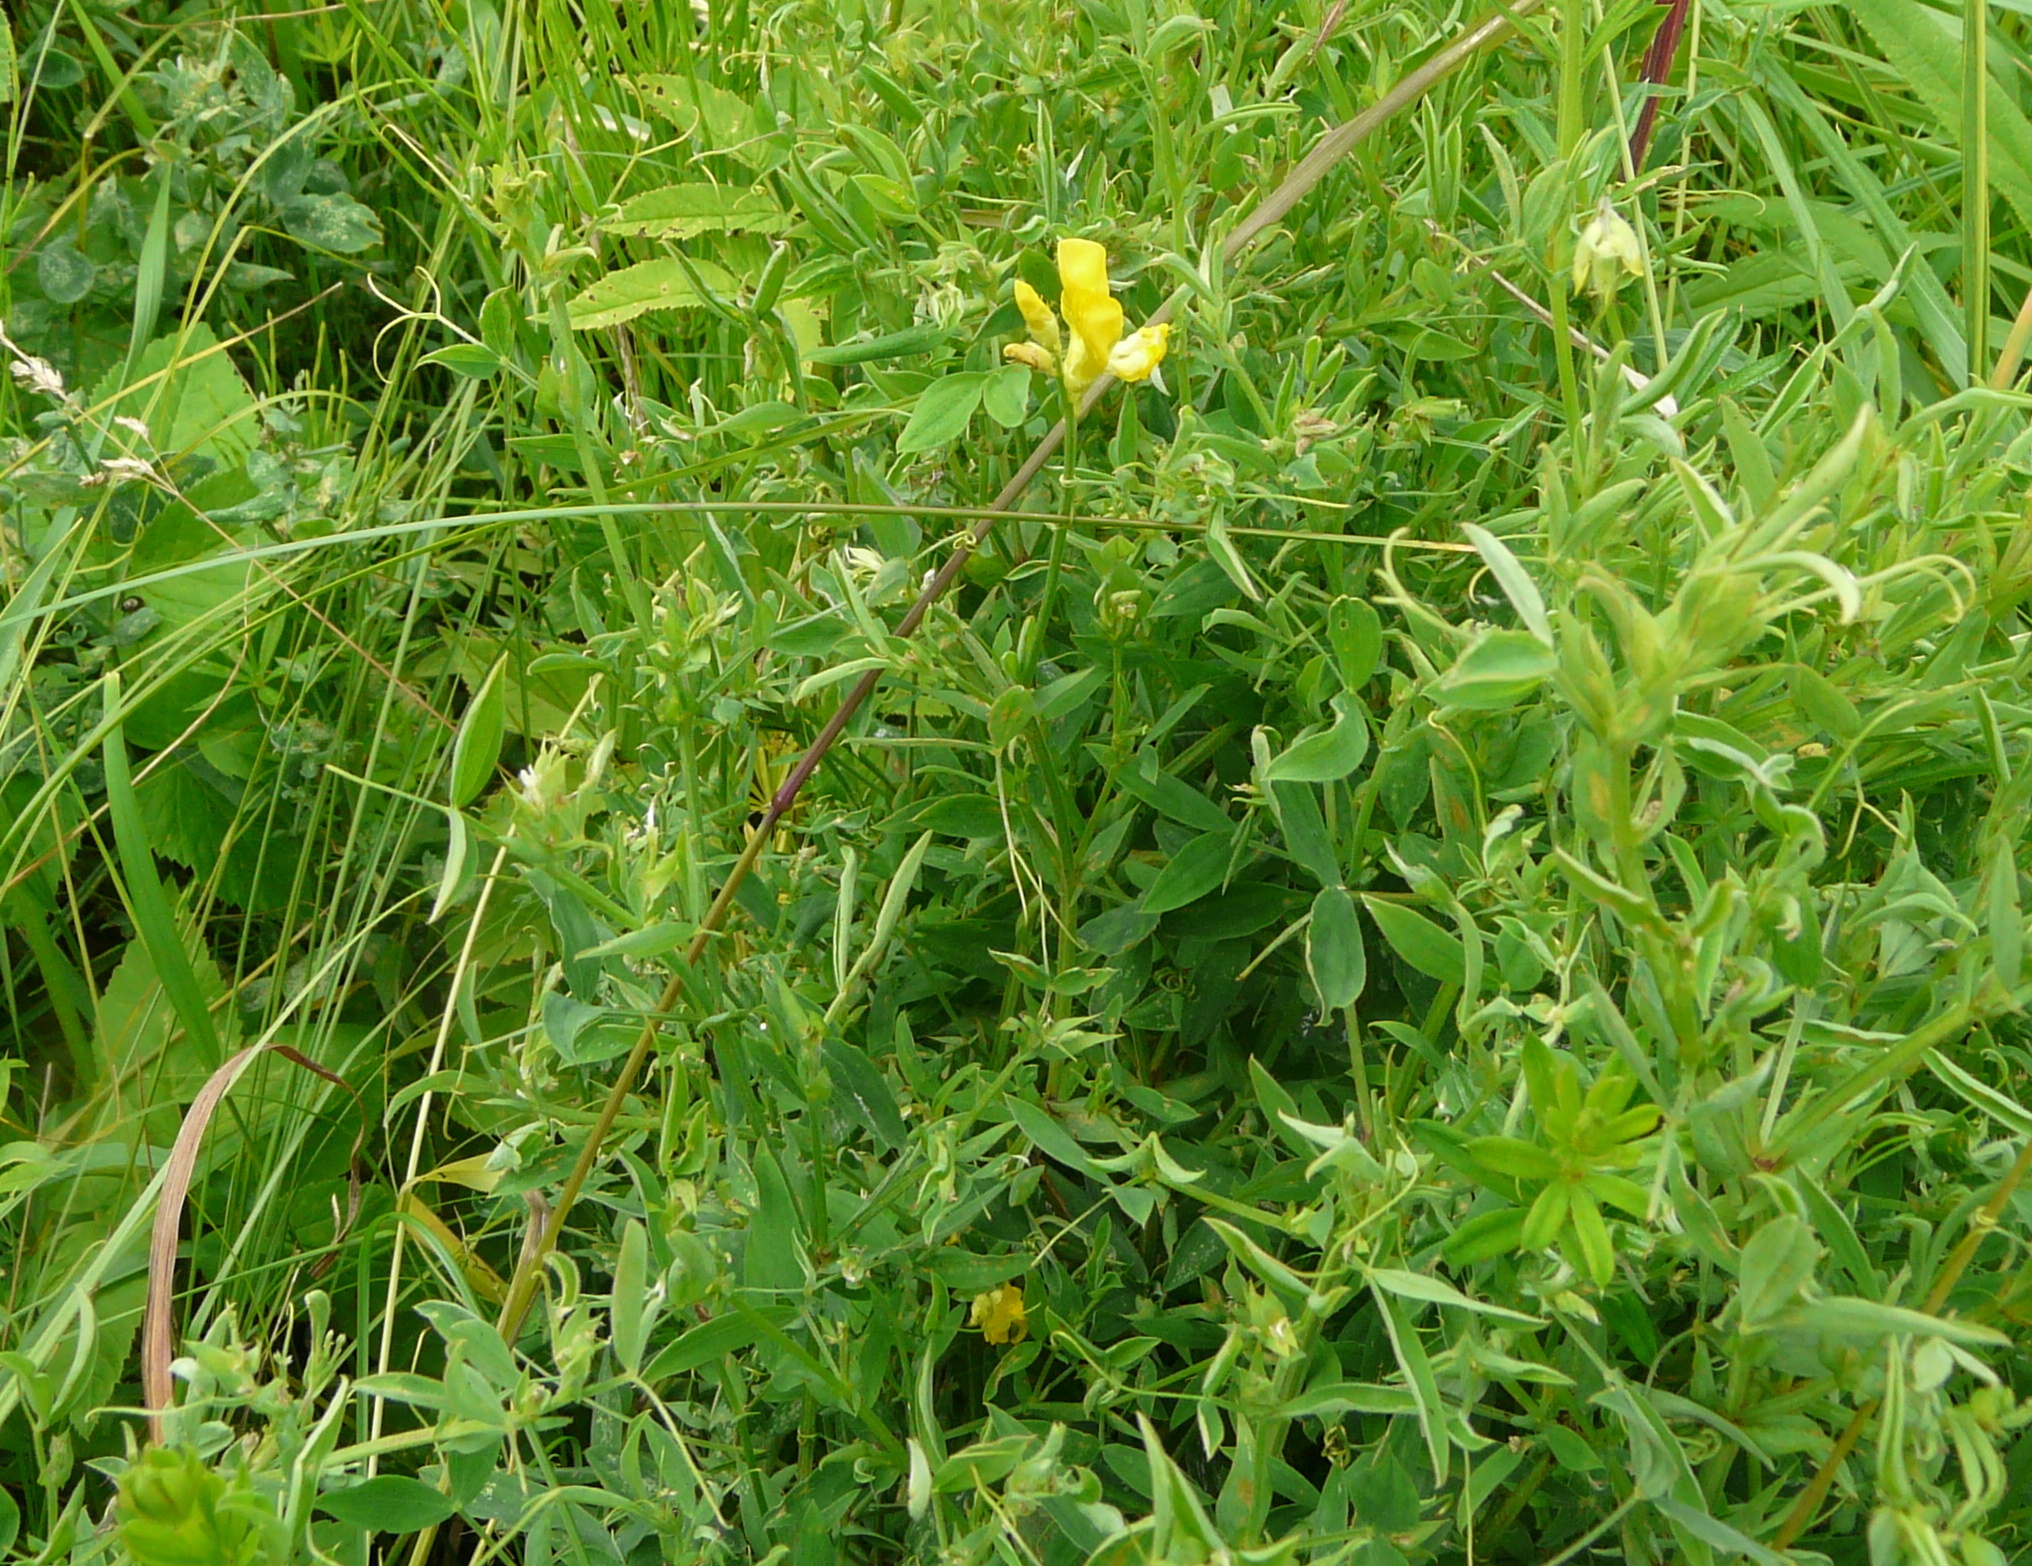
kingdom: Plantae
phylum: Tracheophyta
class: Magnoliopsida
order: Fabales
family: Fabaceae
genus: Lathyrus
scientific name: Lathyrus pratensis
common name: Meadow vetchling
